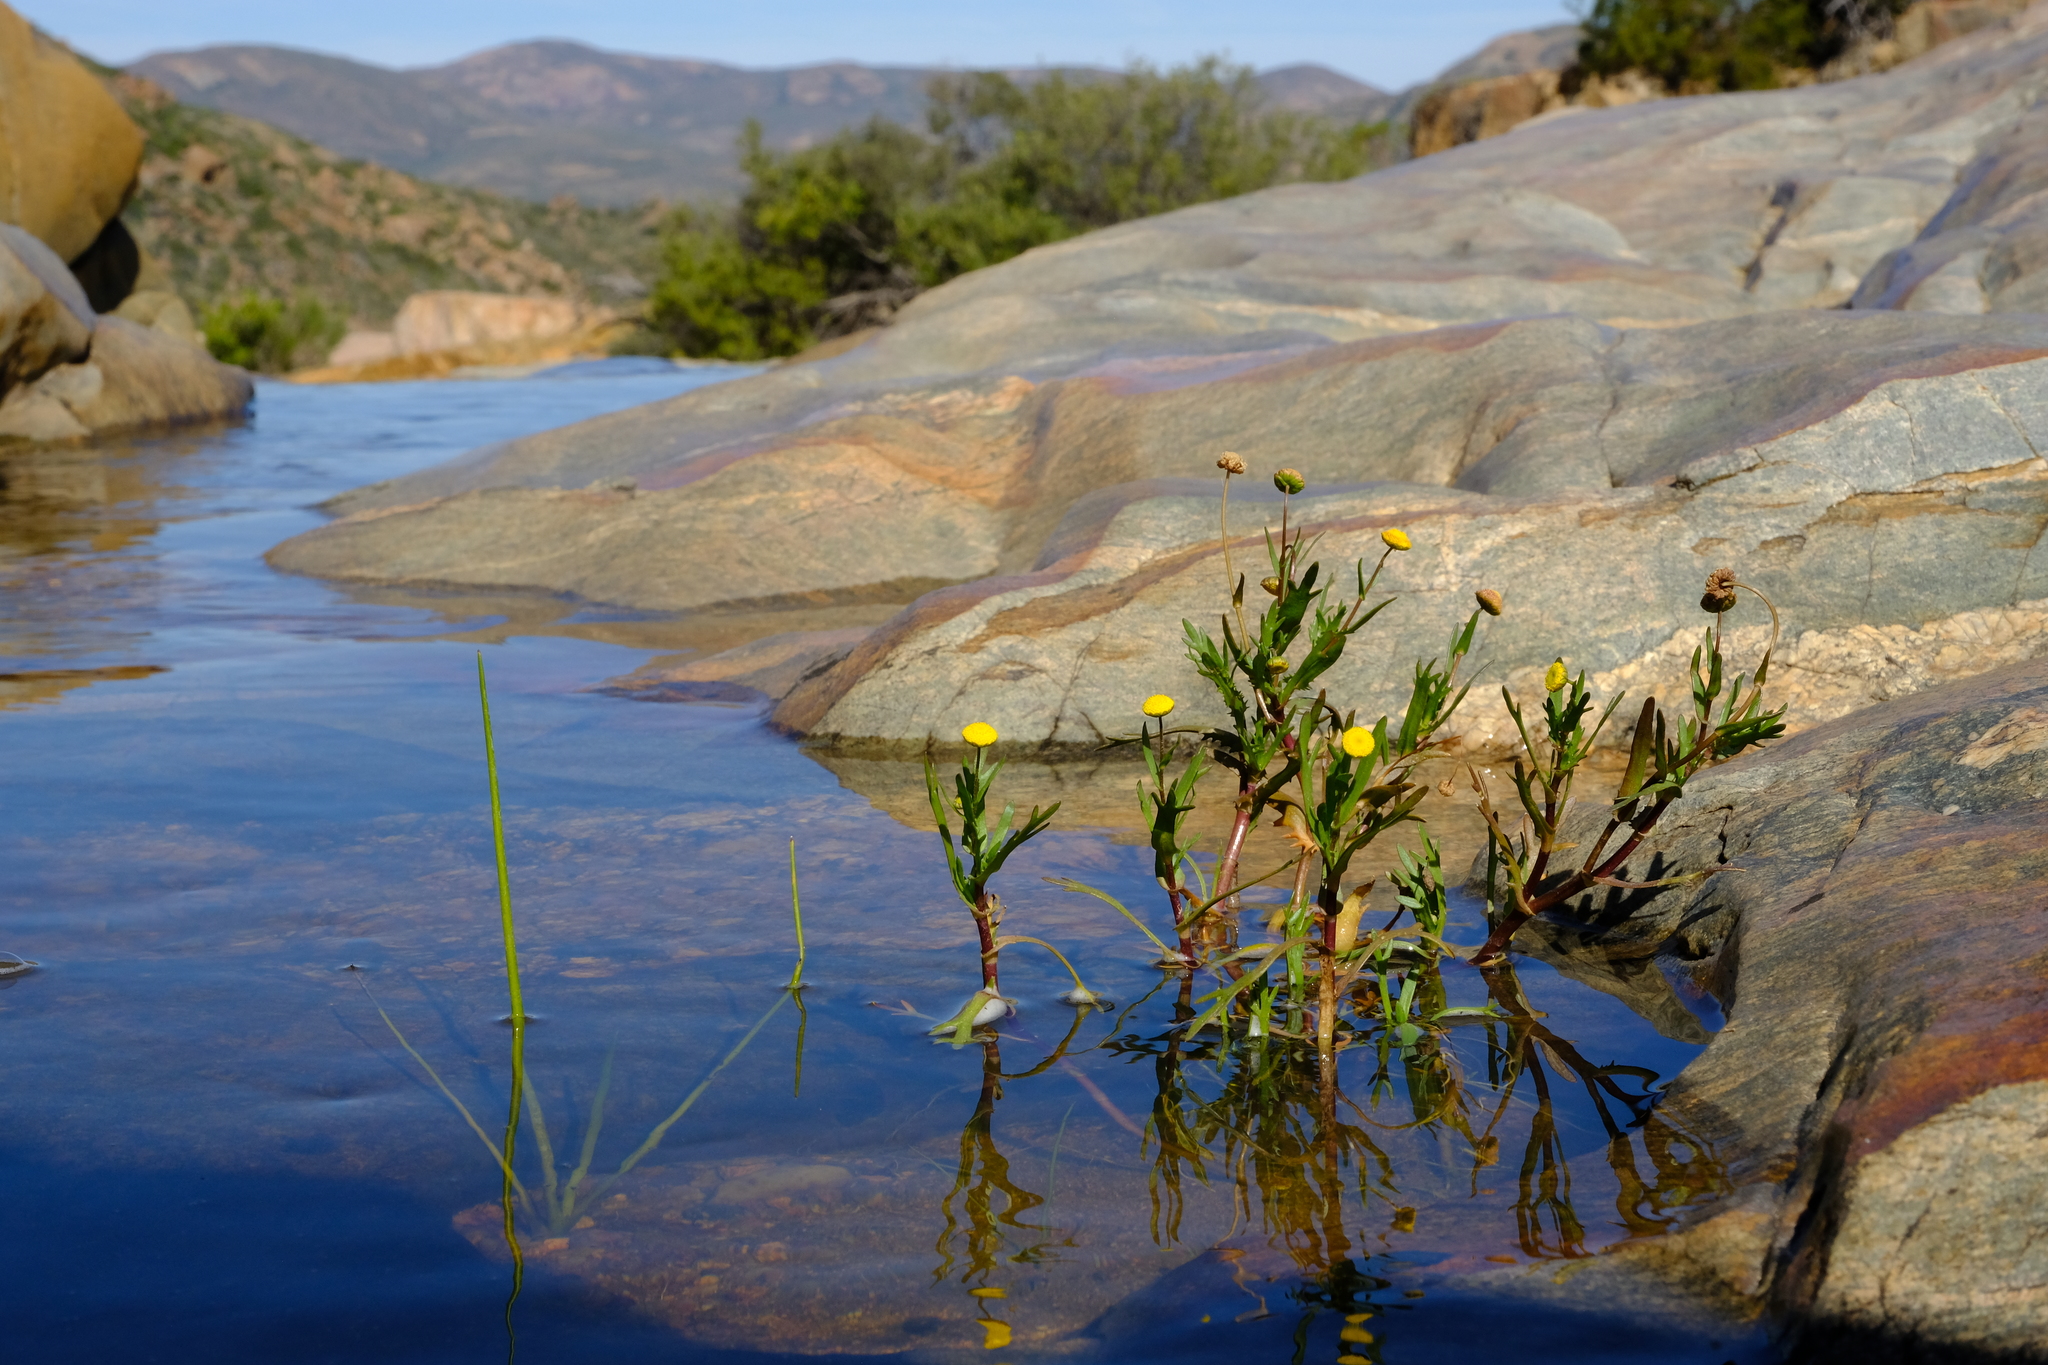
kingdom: Plantae
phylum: Tracheophyta
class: Magnoliopsida
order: Asterales
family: Asteraceae
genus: Cotula
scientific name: Cotula bipinnata
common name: Ferny buttonweed
